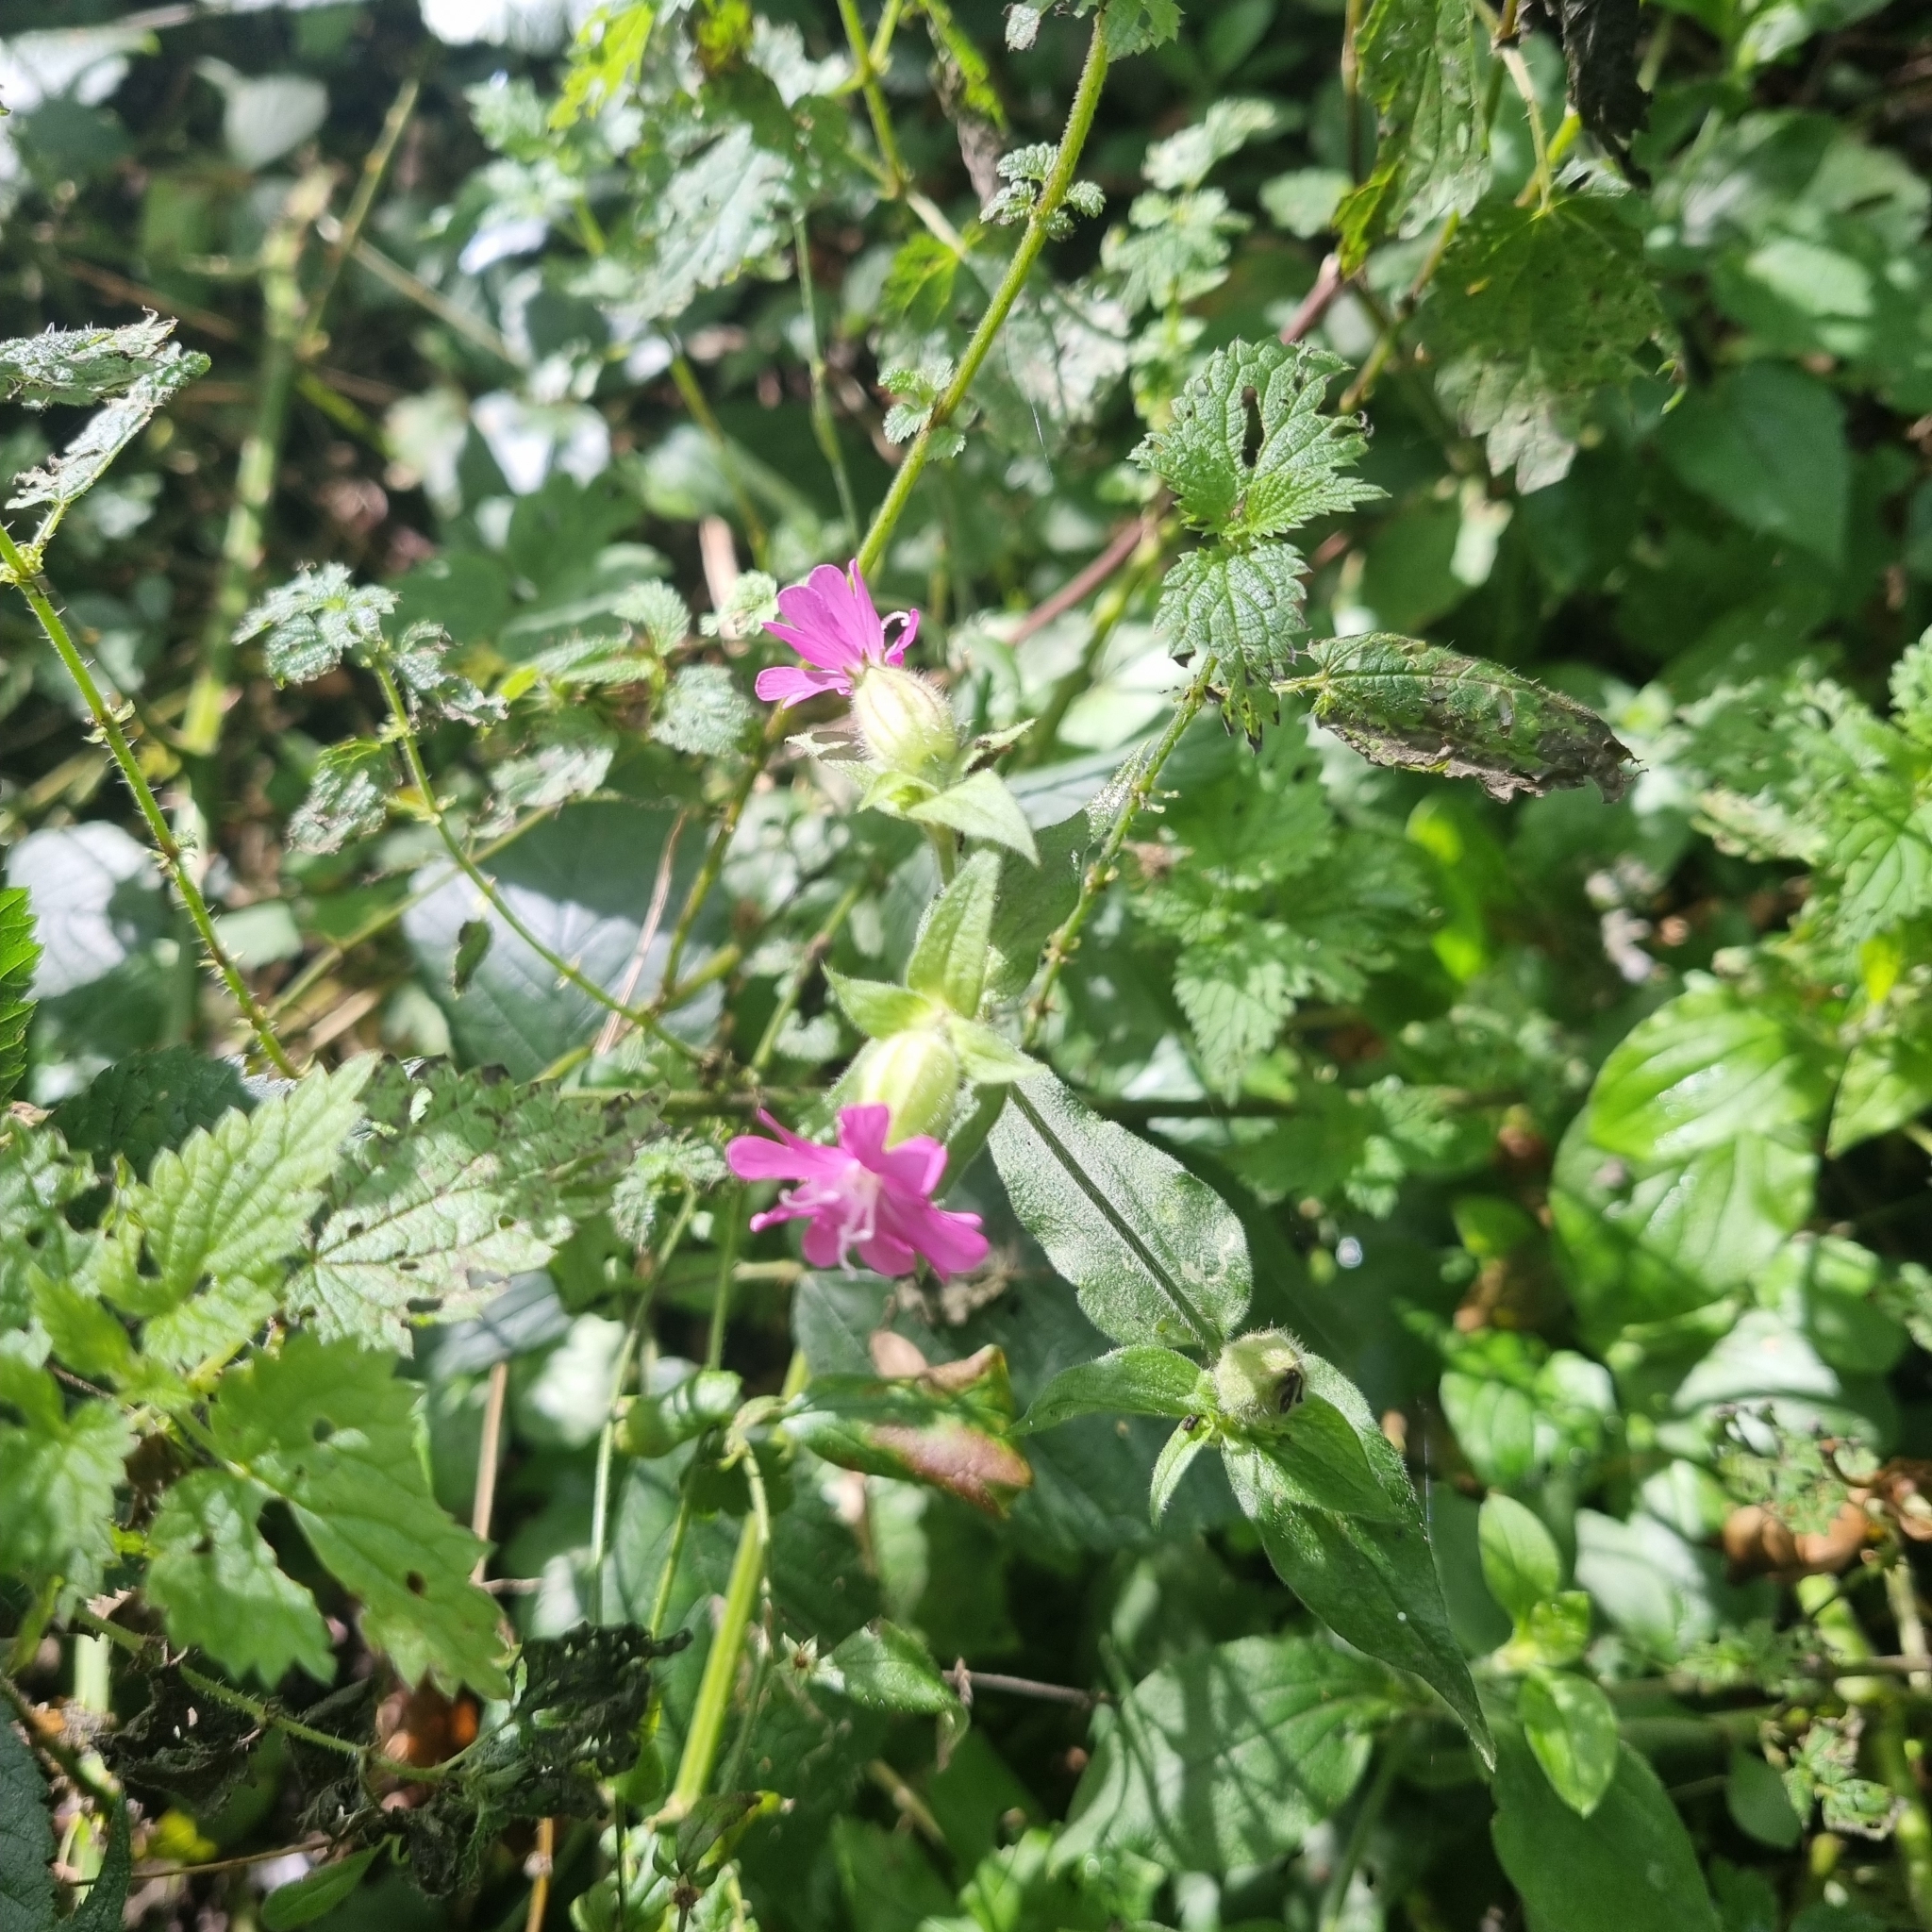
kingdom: Plantae
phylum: Tracheophyta
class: Magnoliopsida
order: Caryophyllales
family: Caryophyllaceae
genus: Silene
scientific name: Silene dioica
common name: Red campion
